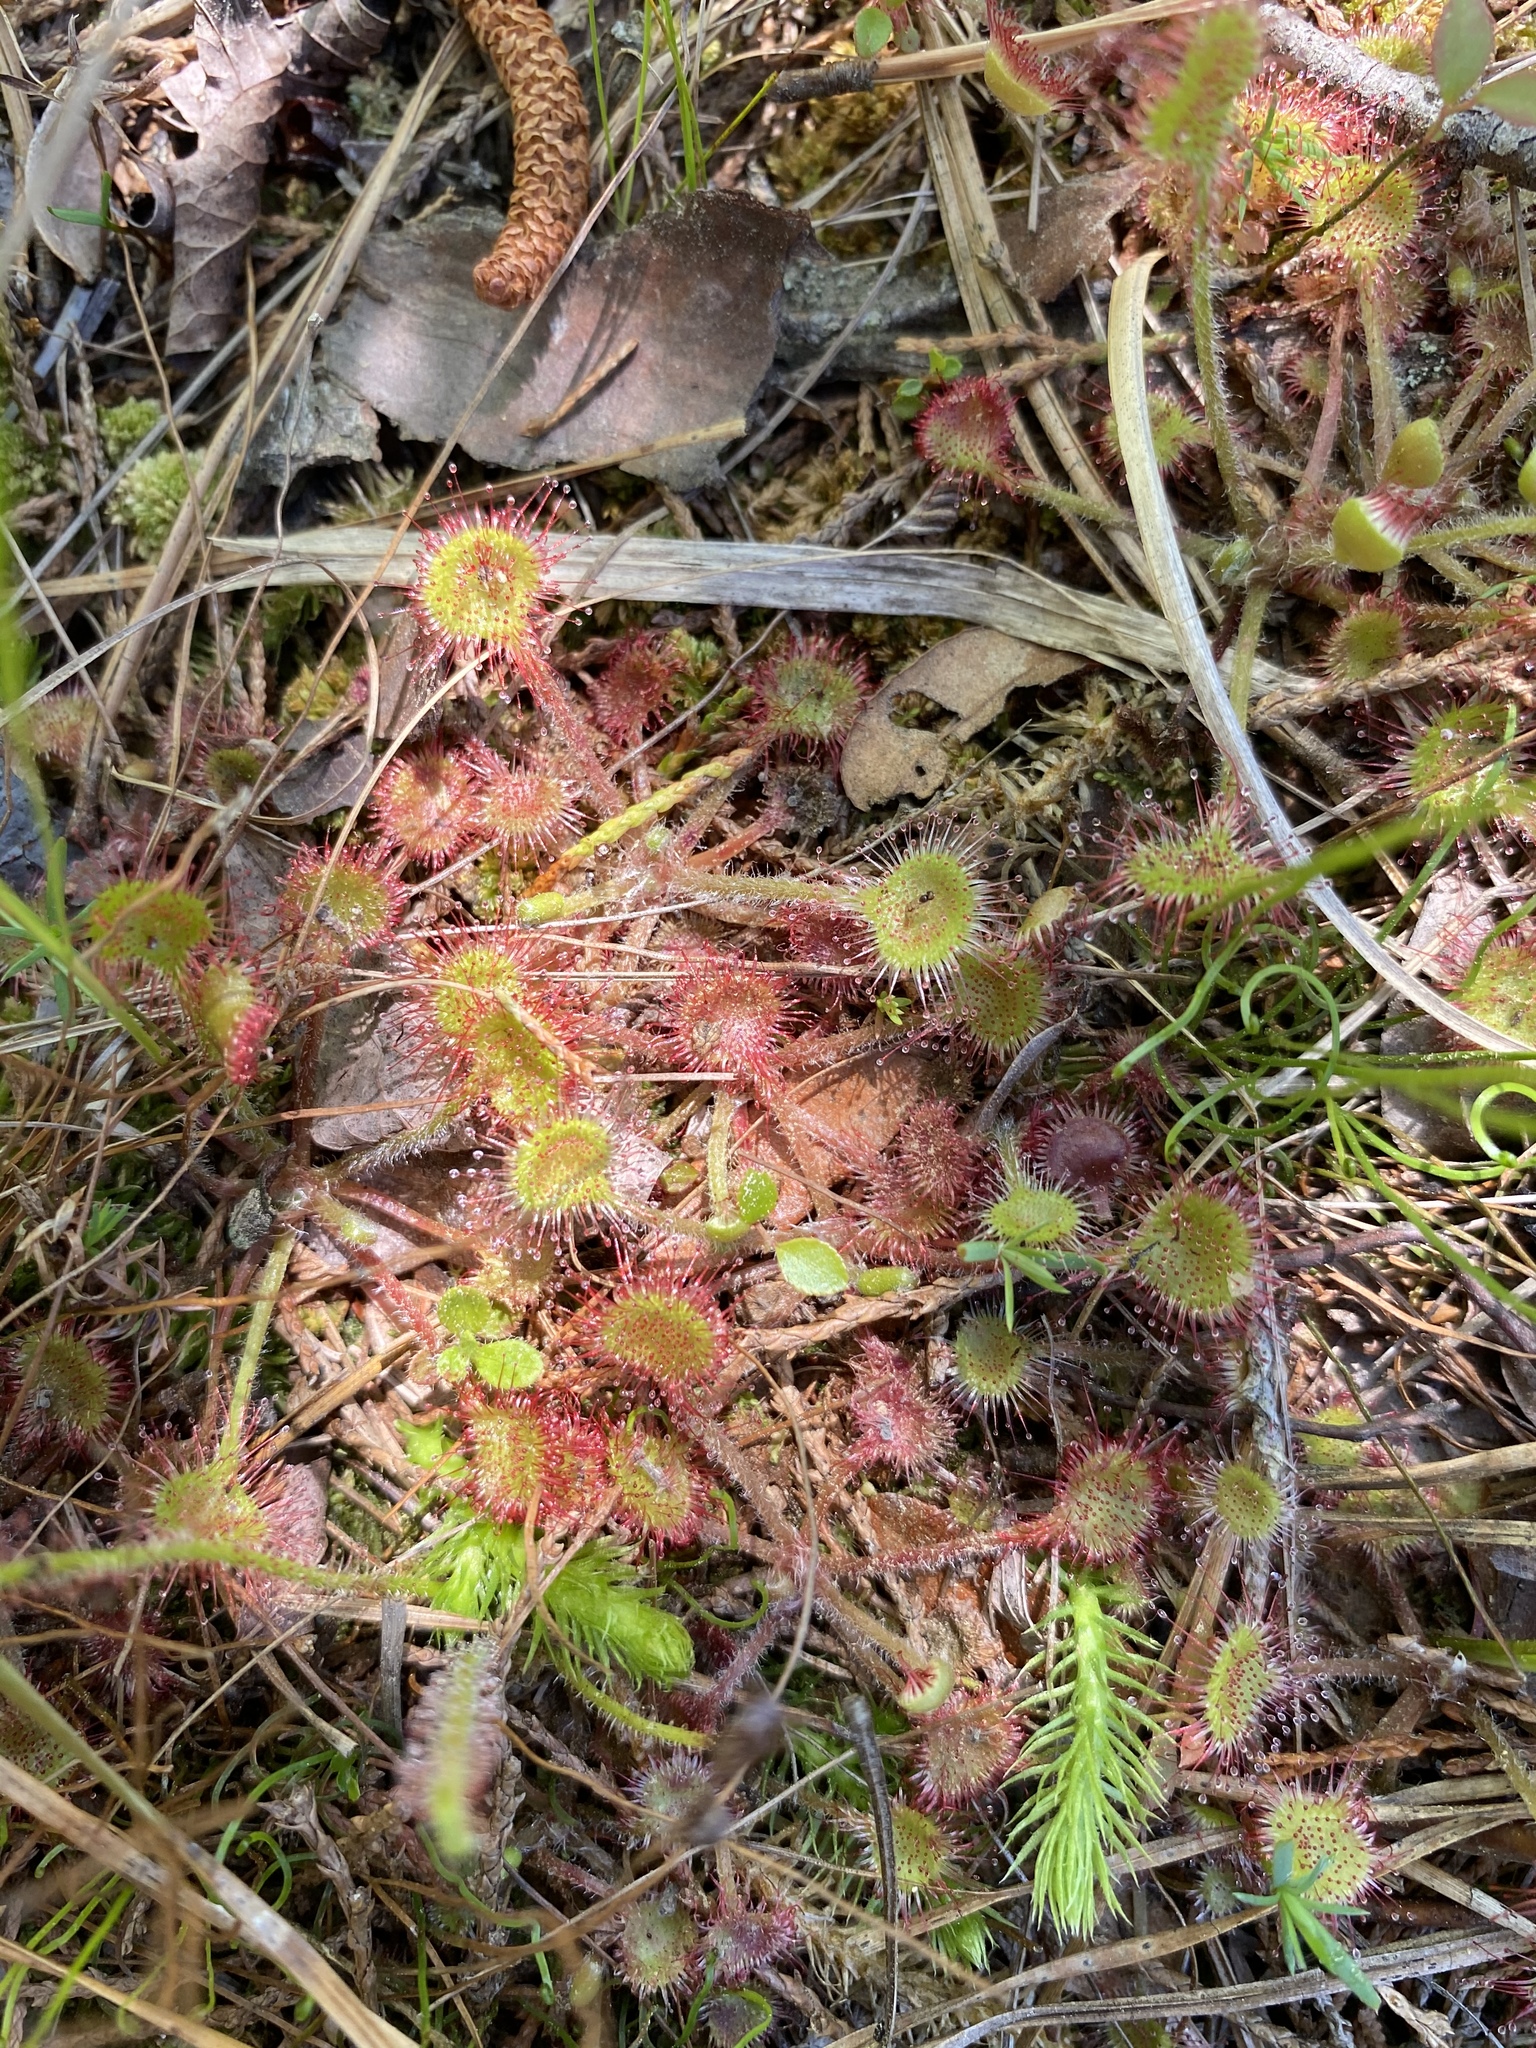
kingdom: Plantae
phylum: Tracheophyta
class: Magnoliopsida
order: Caryophyllales
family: Droseraceae
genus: Drosera
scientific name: Drosera rotundifolia
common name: Round-leaved sundew
